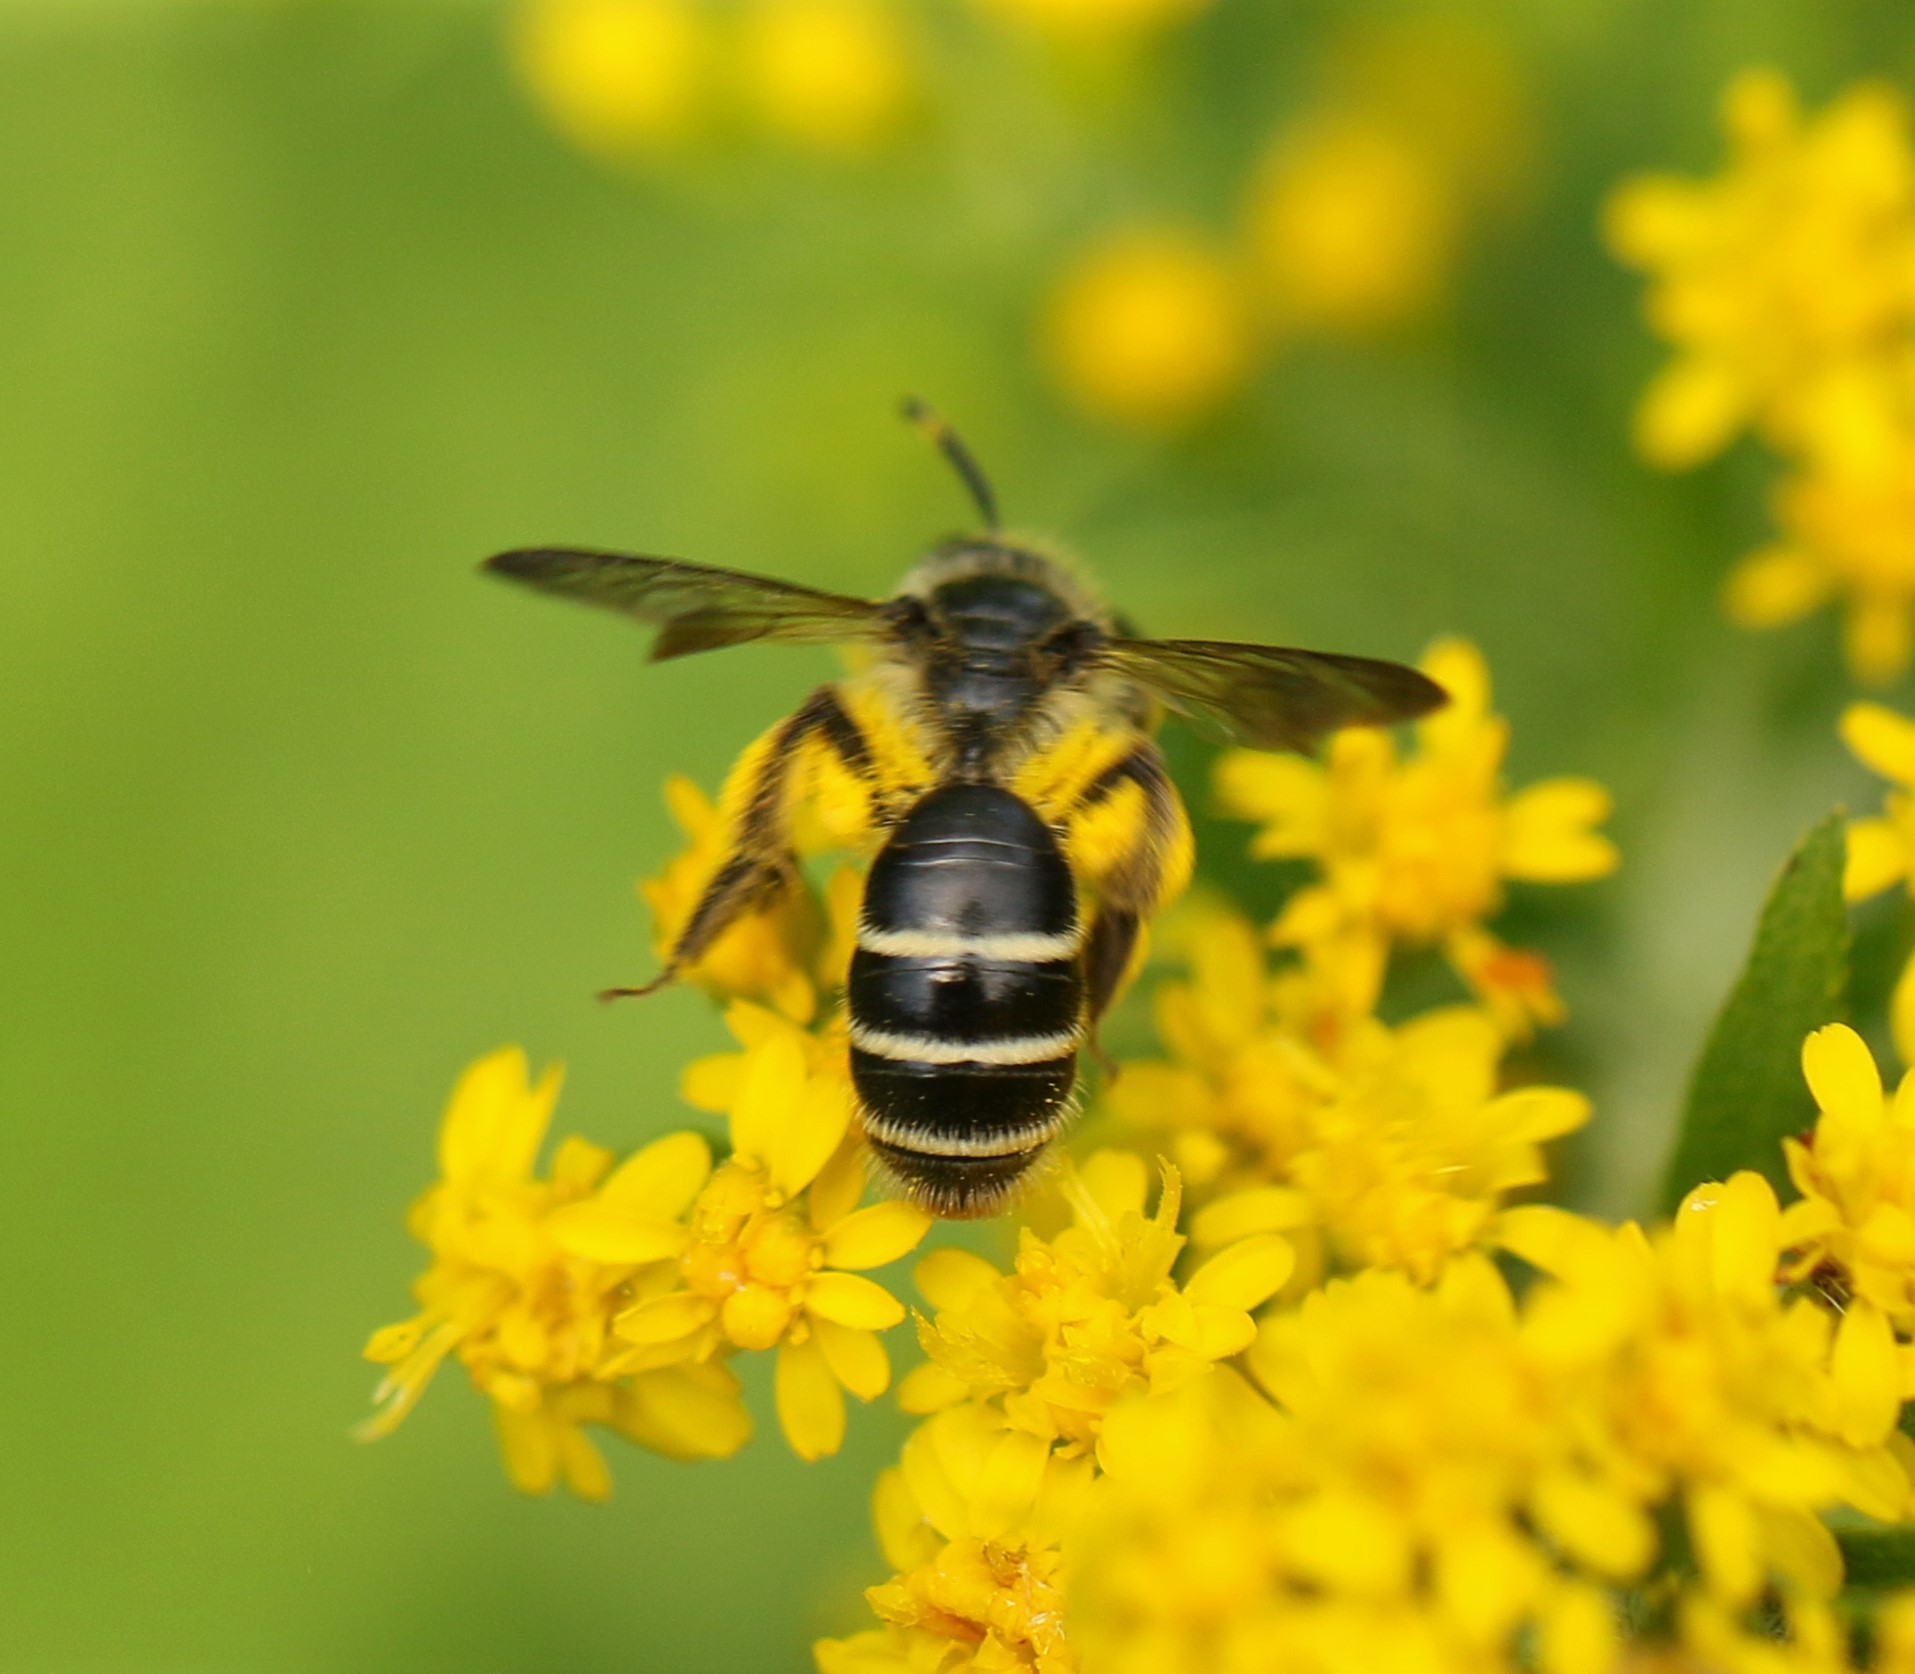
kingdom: Animalia
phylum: Arthropoda
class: Insecta
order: Hymenoptera
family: Andrenidae
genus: Andrena
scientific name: Andrena nubecula
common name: Cloudy-winged mining bee
